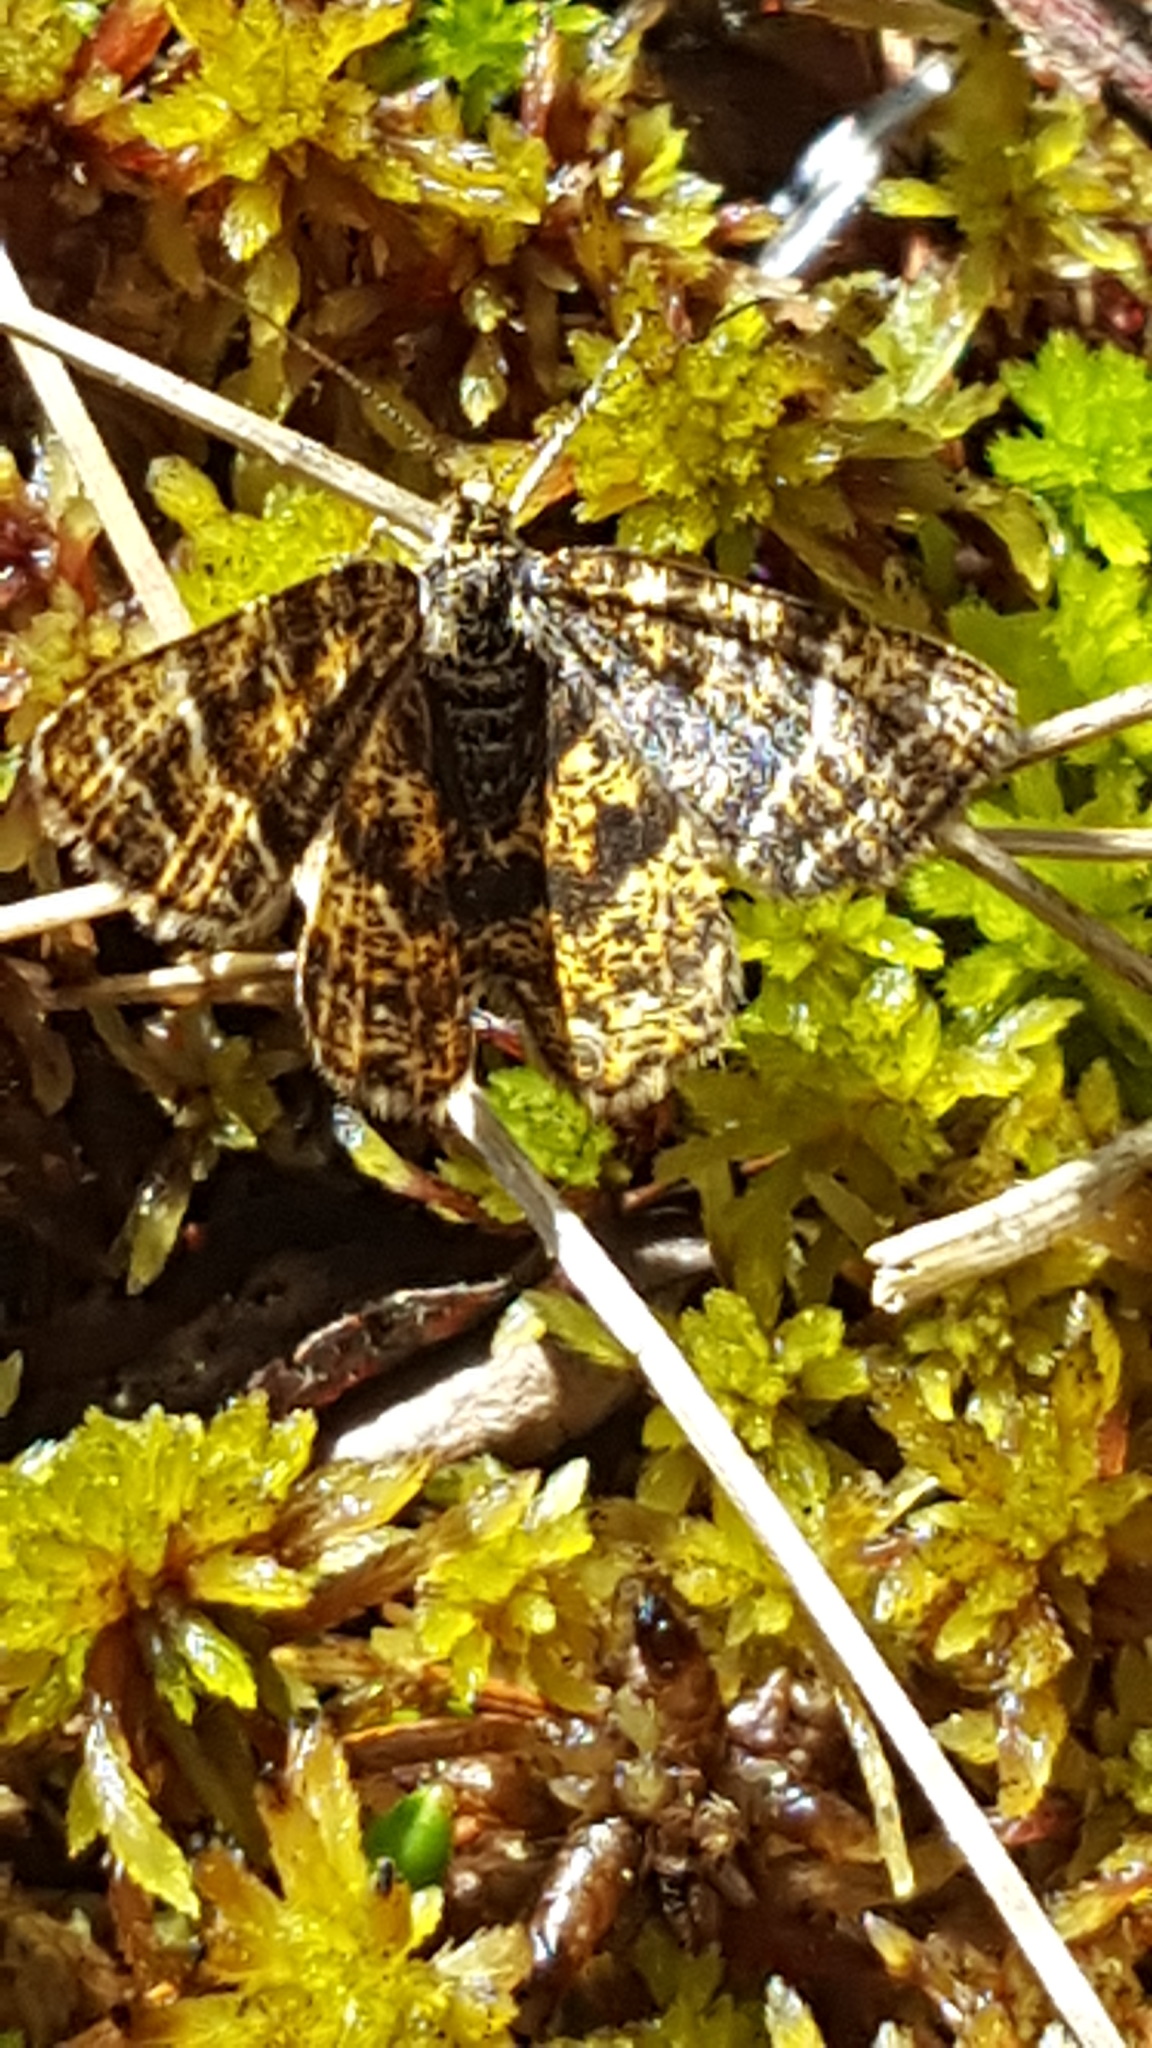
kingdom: Animalia
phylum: Arthropoda
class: Insecta
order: Lepidoptera
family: Geometridae
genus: Macaria
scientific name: Macaria truncataria
